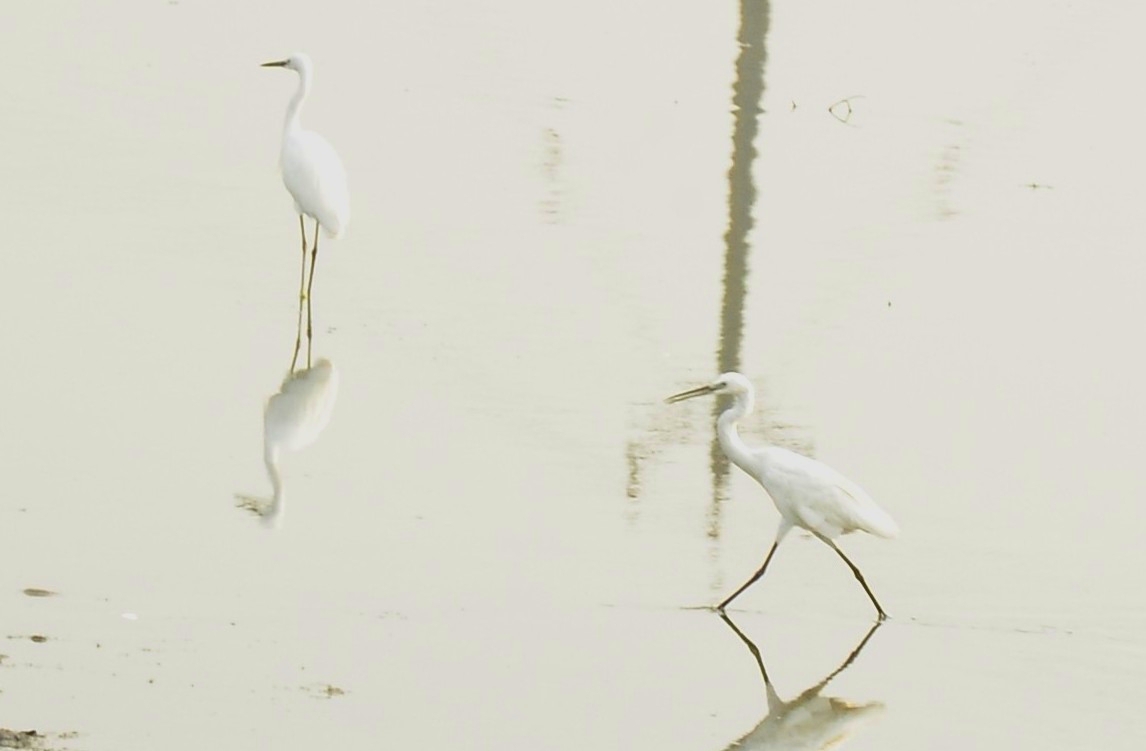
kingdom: Animalia
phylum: Chordata
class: Aves
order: Pelecaniformes
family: Ardeidae
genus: Egretta
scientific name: Egretta garzetta
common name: Little egret
